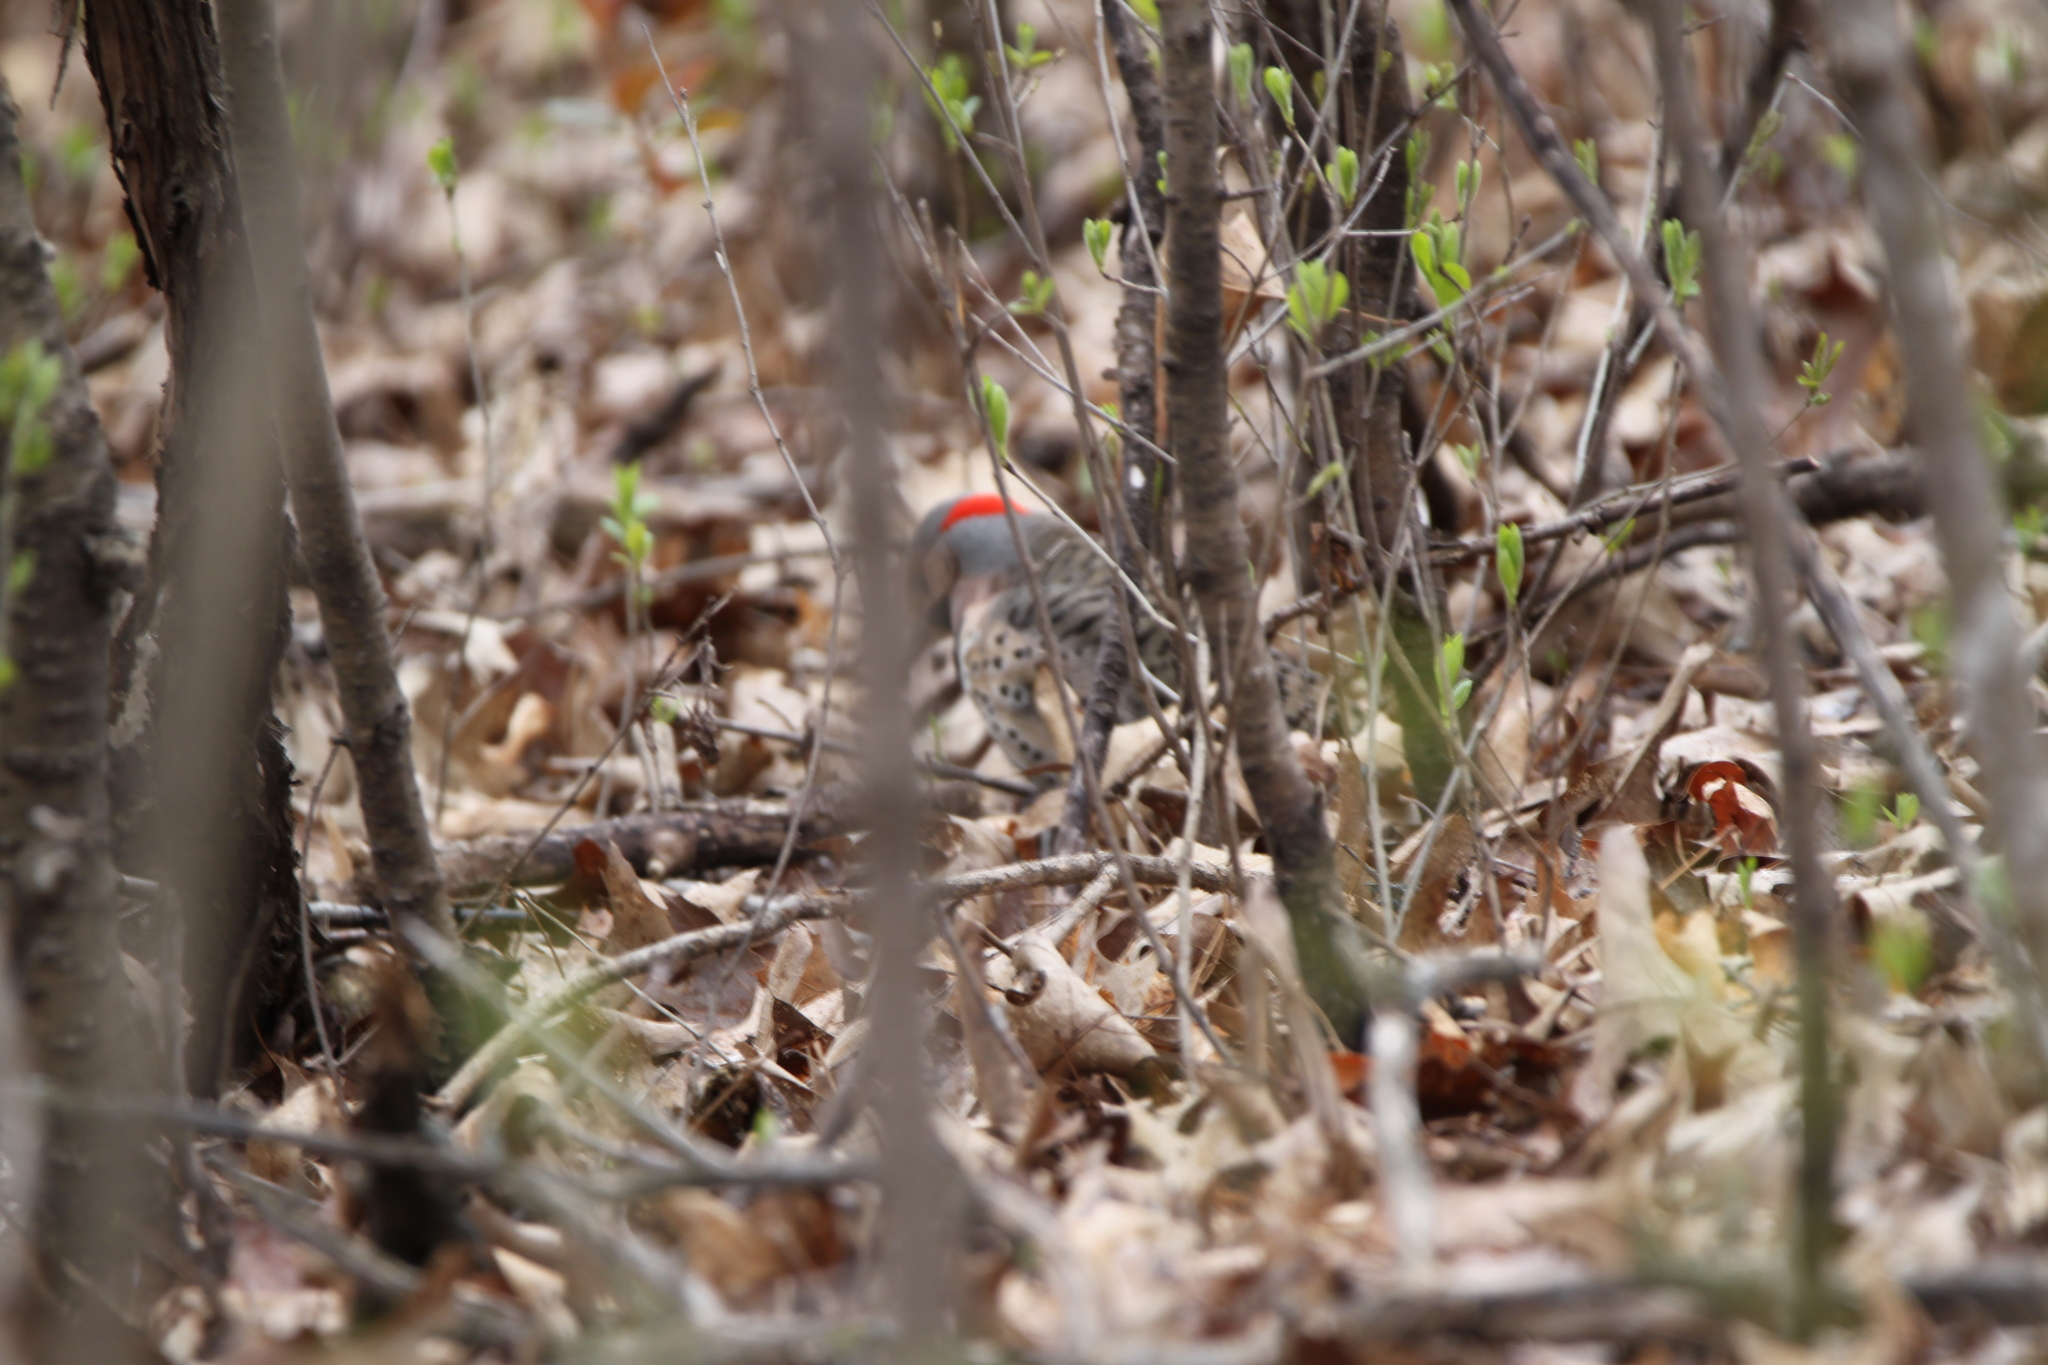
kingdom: Animalia
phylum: Chordata
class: Aves
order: Piciformes
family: Picidae
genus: Colaptes
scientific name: Colaptes auratus
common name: Northern flicker
